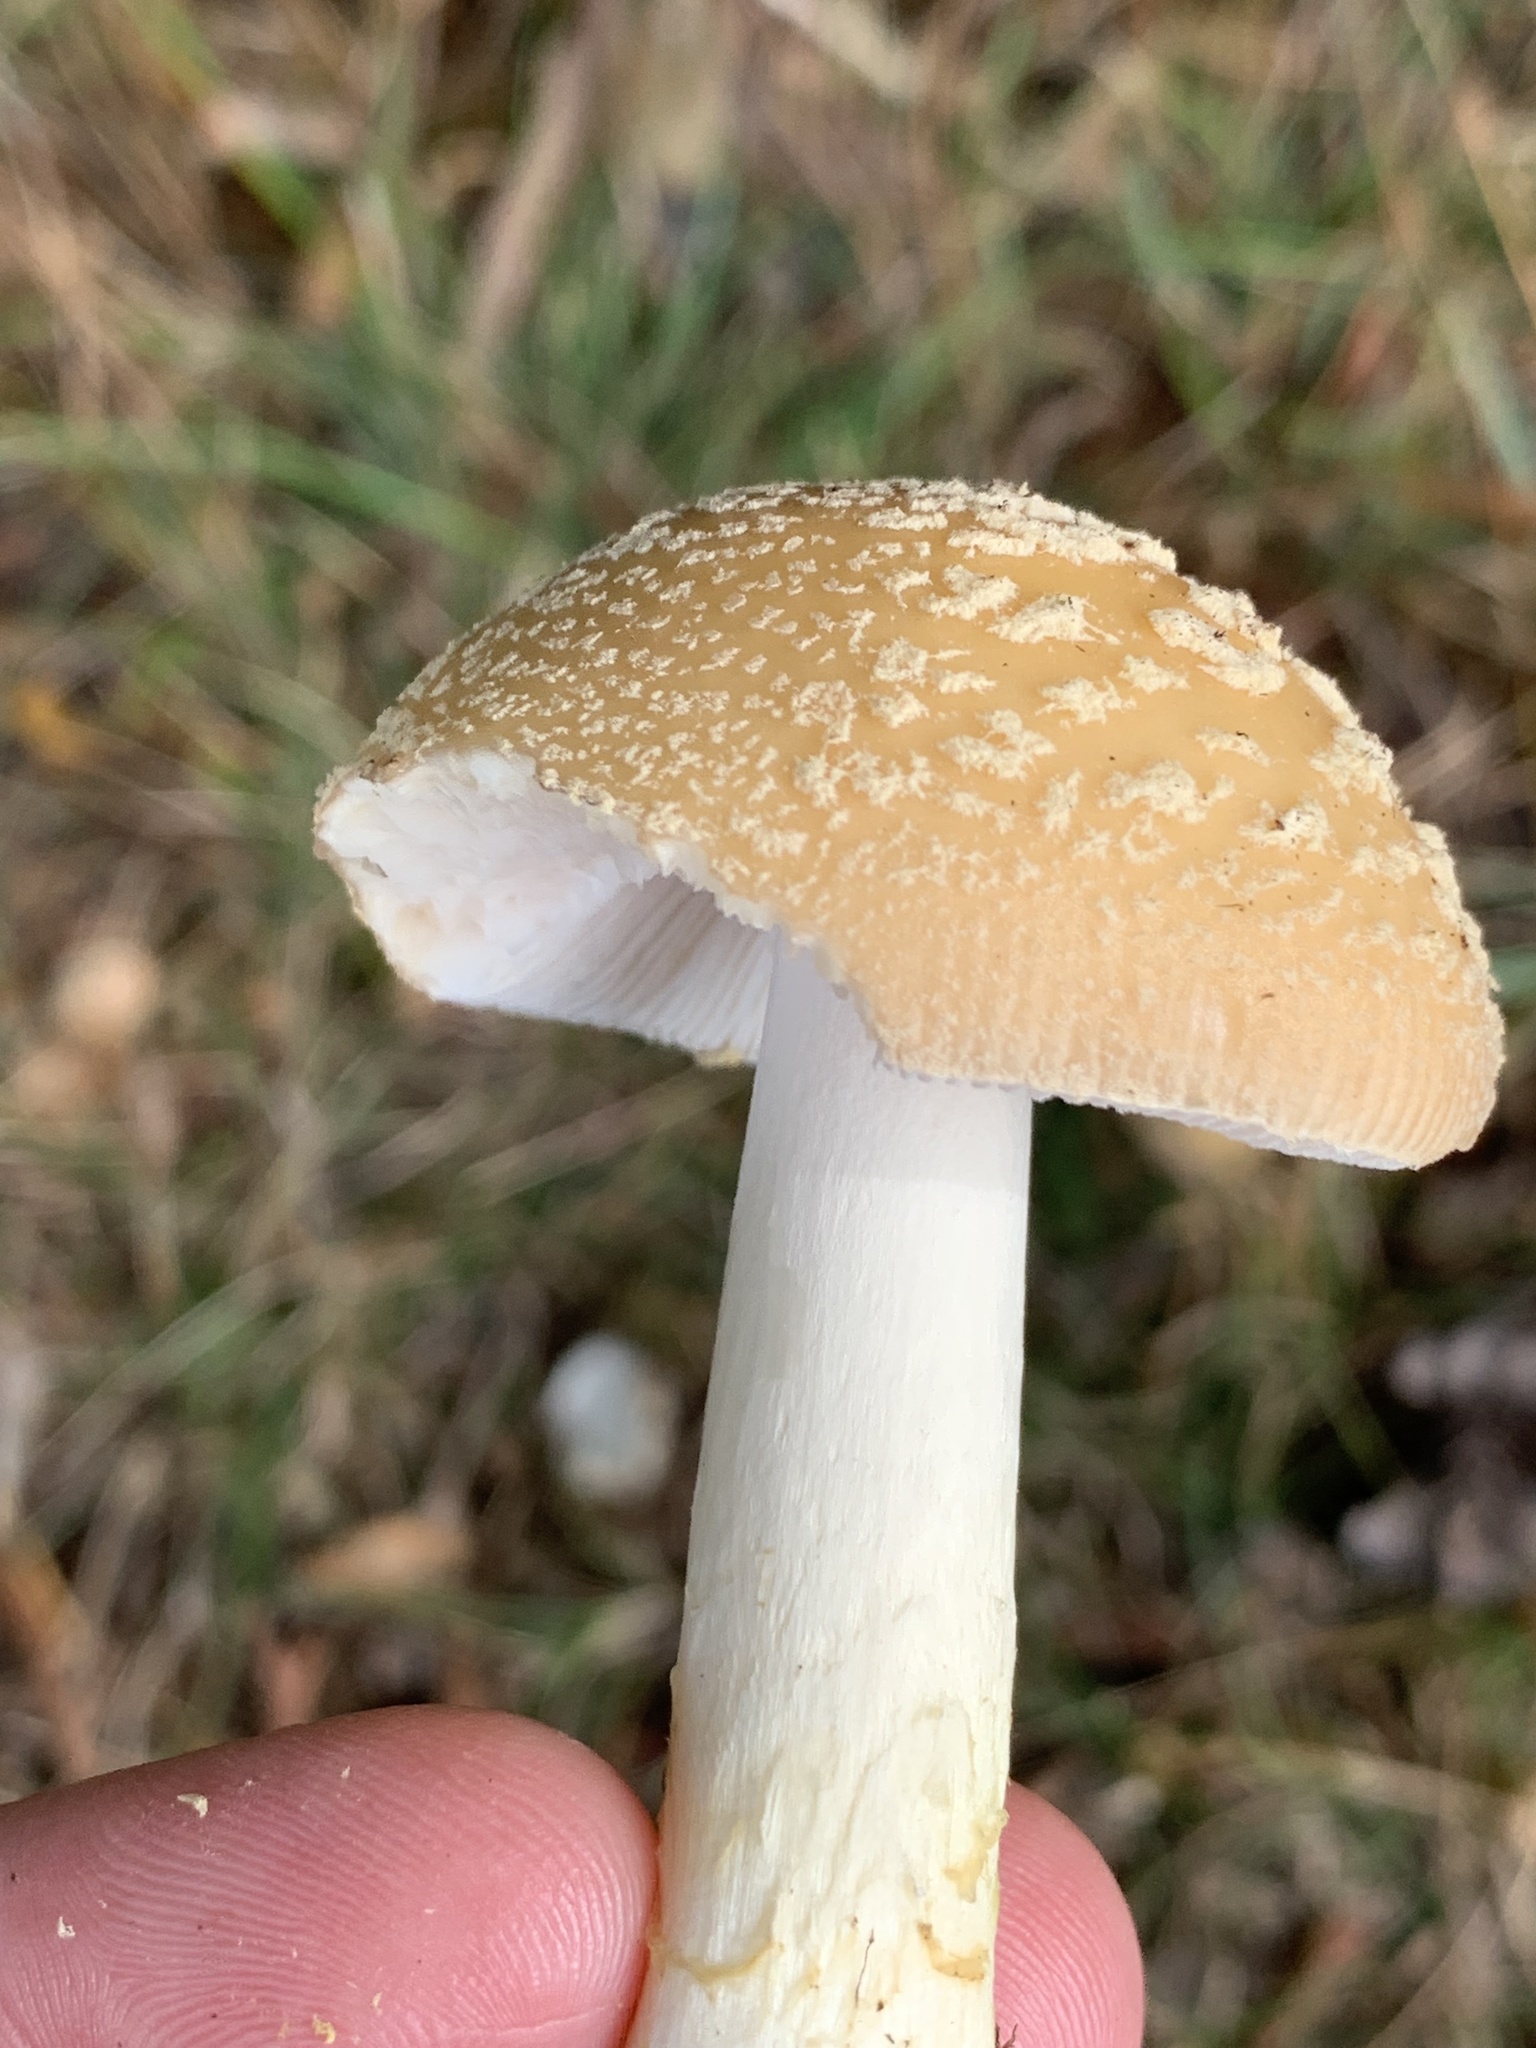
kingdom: Fungi
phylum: Basidiomycota
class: Agaricomycetes
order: Agaricales
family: Amanitaceae
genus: Amanita
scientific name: Amanita crenulata
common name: Poison champagne amanita
